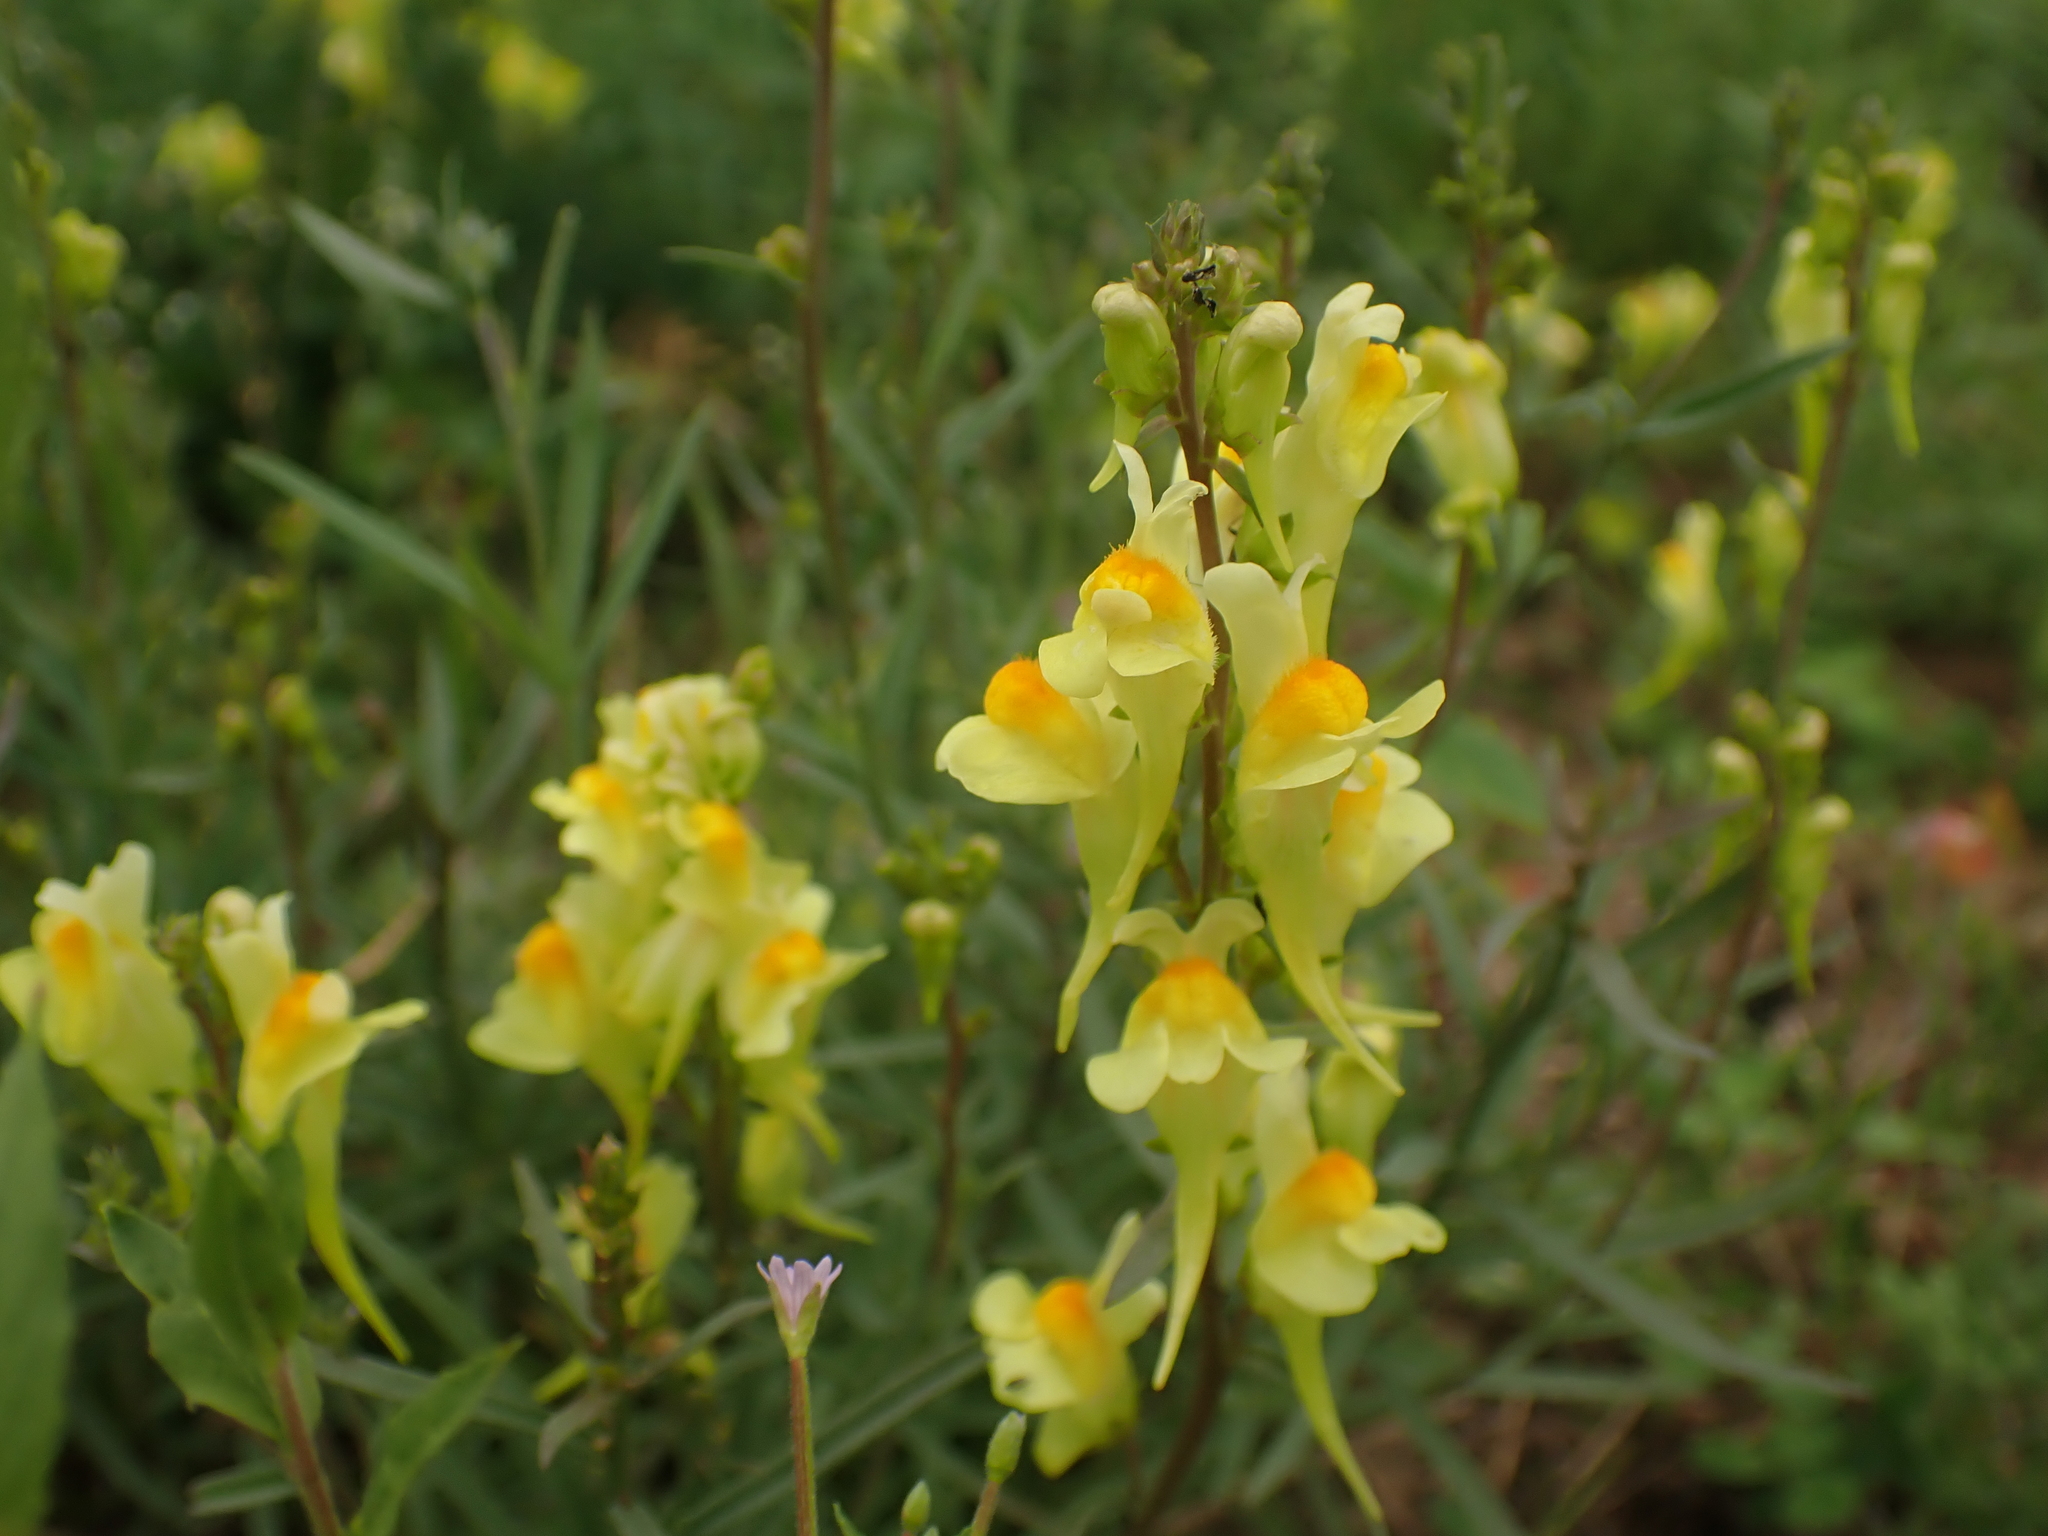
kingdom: Plantae
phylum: Tracheophyta
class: Magnoliopsida
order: Lamiales
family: Plantaginaceae
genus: Linaria
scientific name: Linaria vulgaris
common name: Butter and eggs
